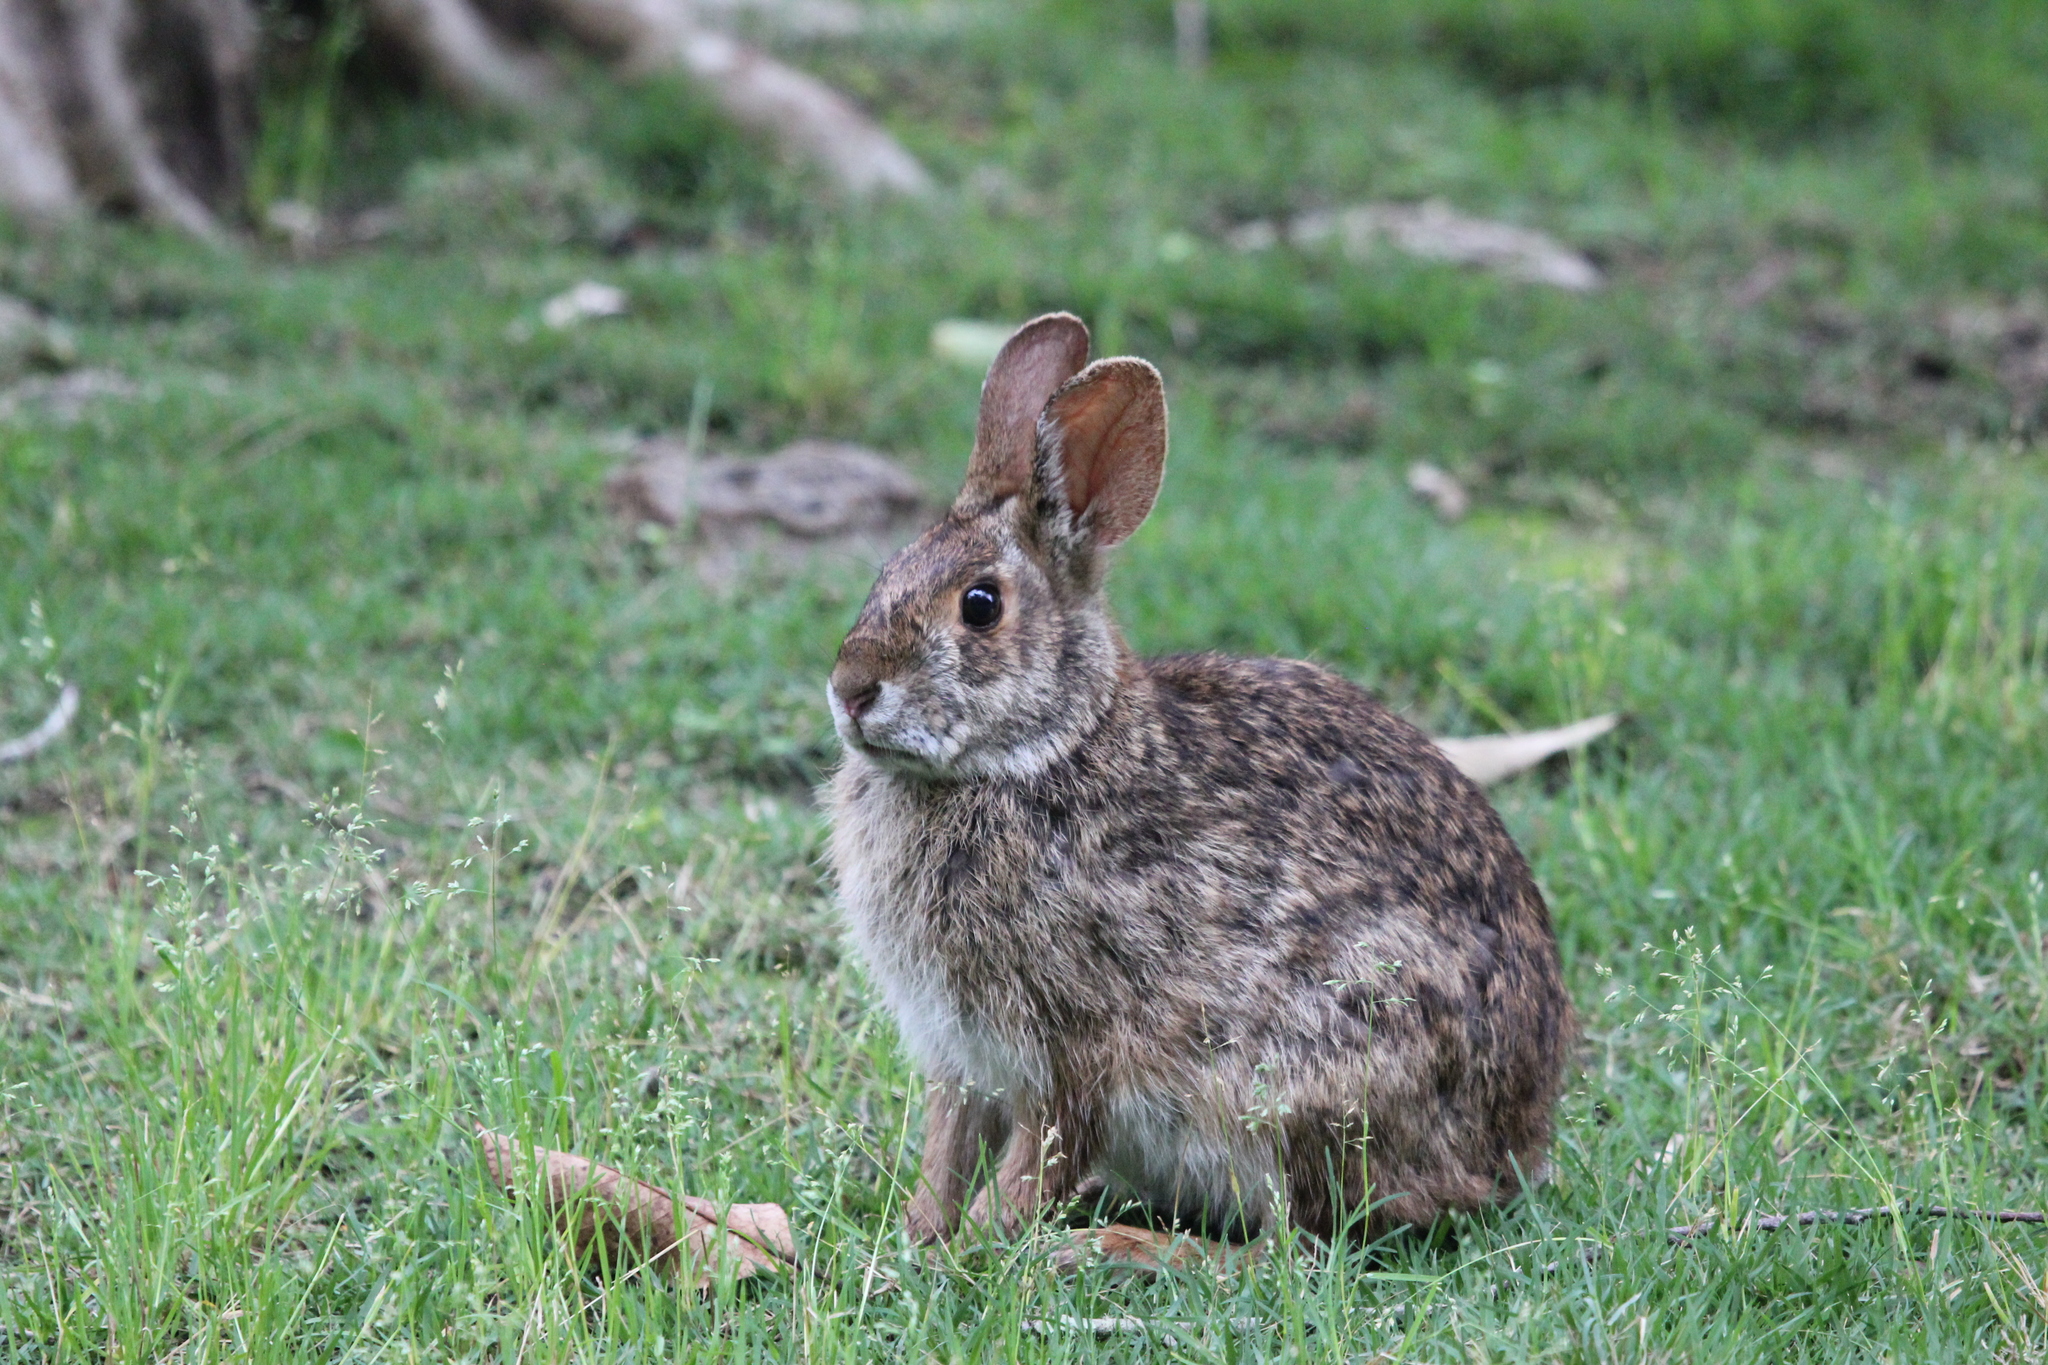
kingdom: Animalia
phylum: Chordata
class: Mammalia
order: Lagomorpha
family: Leporidae
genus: Sylvilagus
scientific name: Sylvilagus aquaticus
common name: Swamp rabbit
